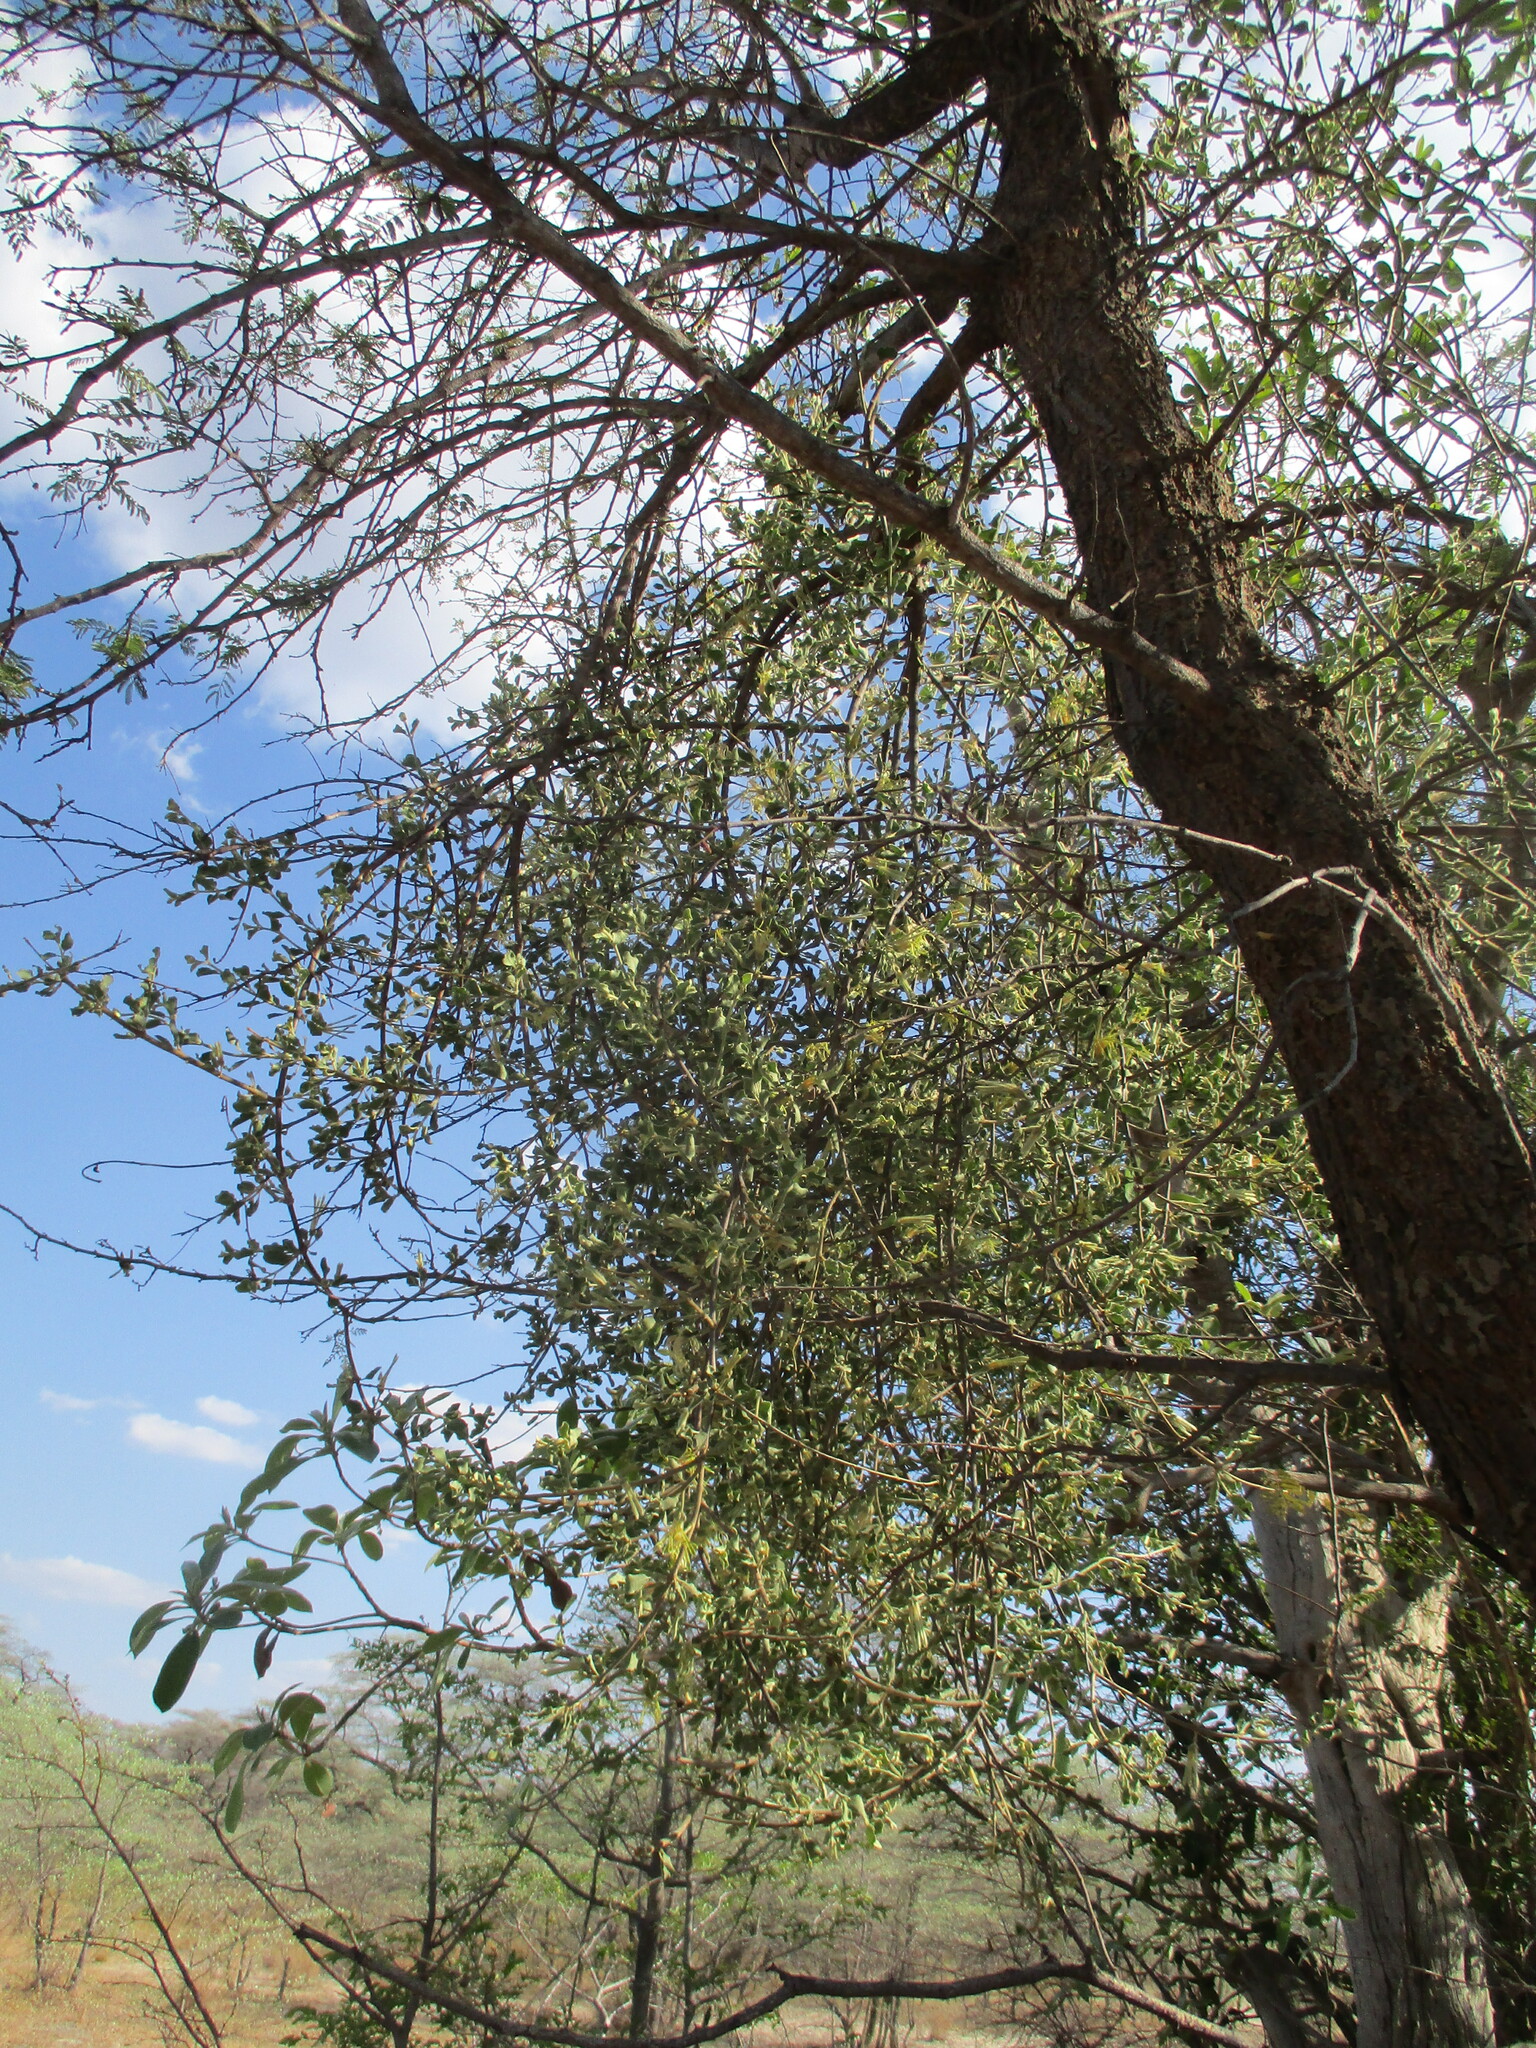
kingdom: Plantae
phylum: Tracheophyta
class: Magnoliopsida
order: Santalales
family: Loranthaceae
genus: Erianthemum
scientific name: Erianthemum ngamicum
